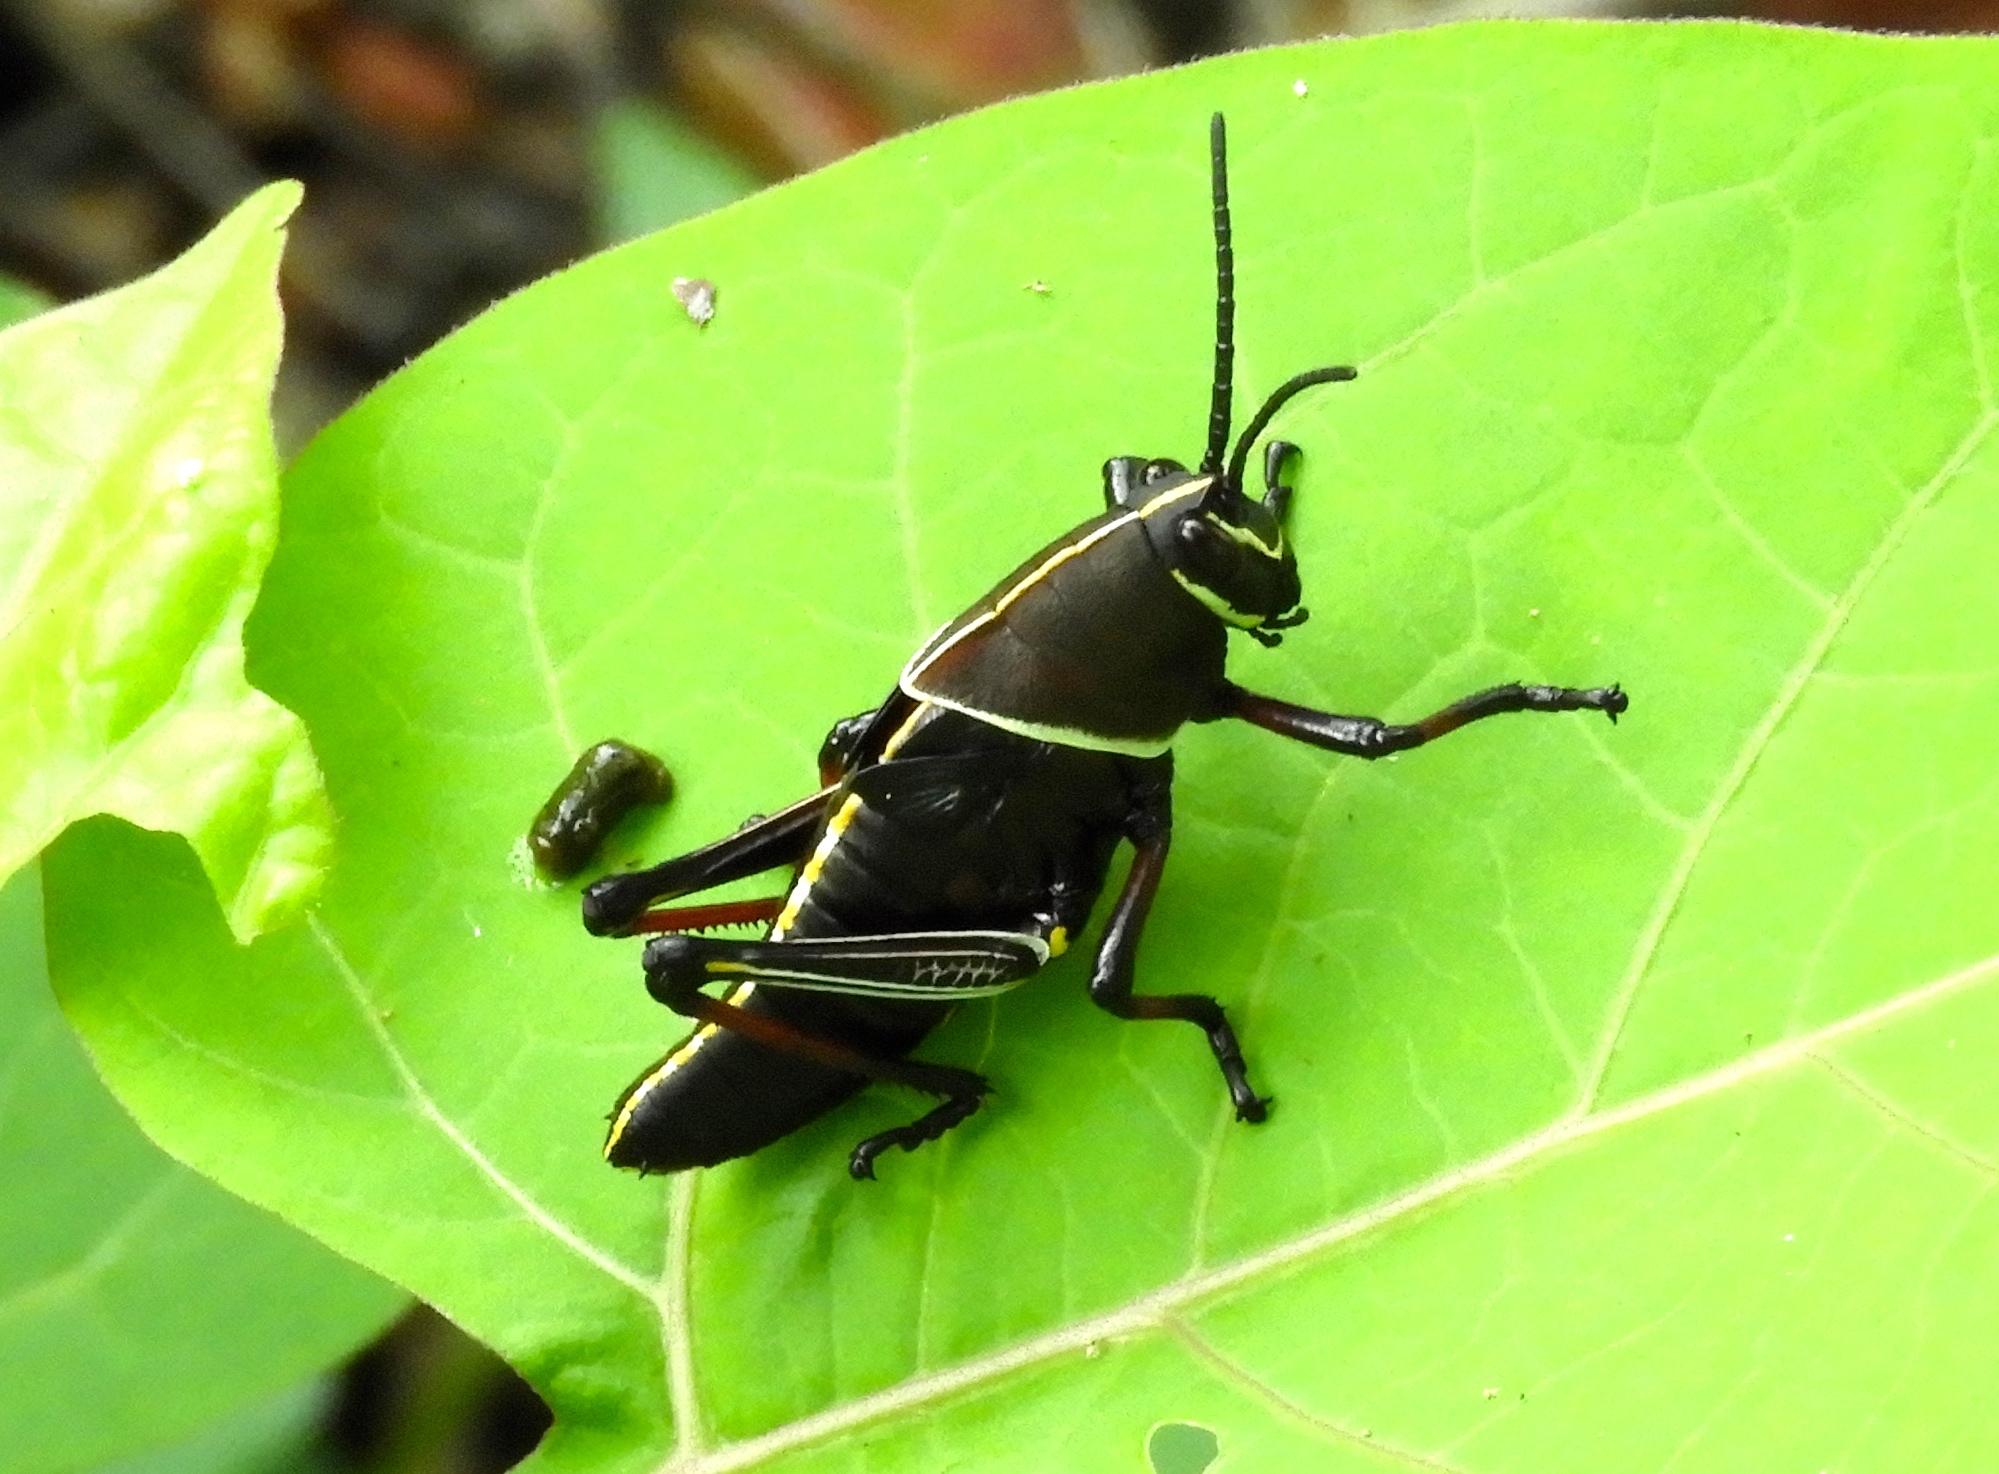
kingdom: Animalia
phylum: Arthropoda
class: Insecta
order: Orthoptera
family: Romaleidae
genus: Romalea
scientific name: Romalea
